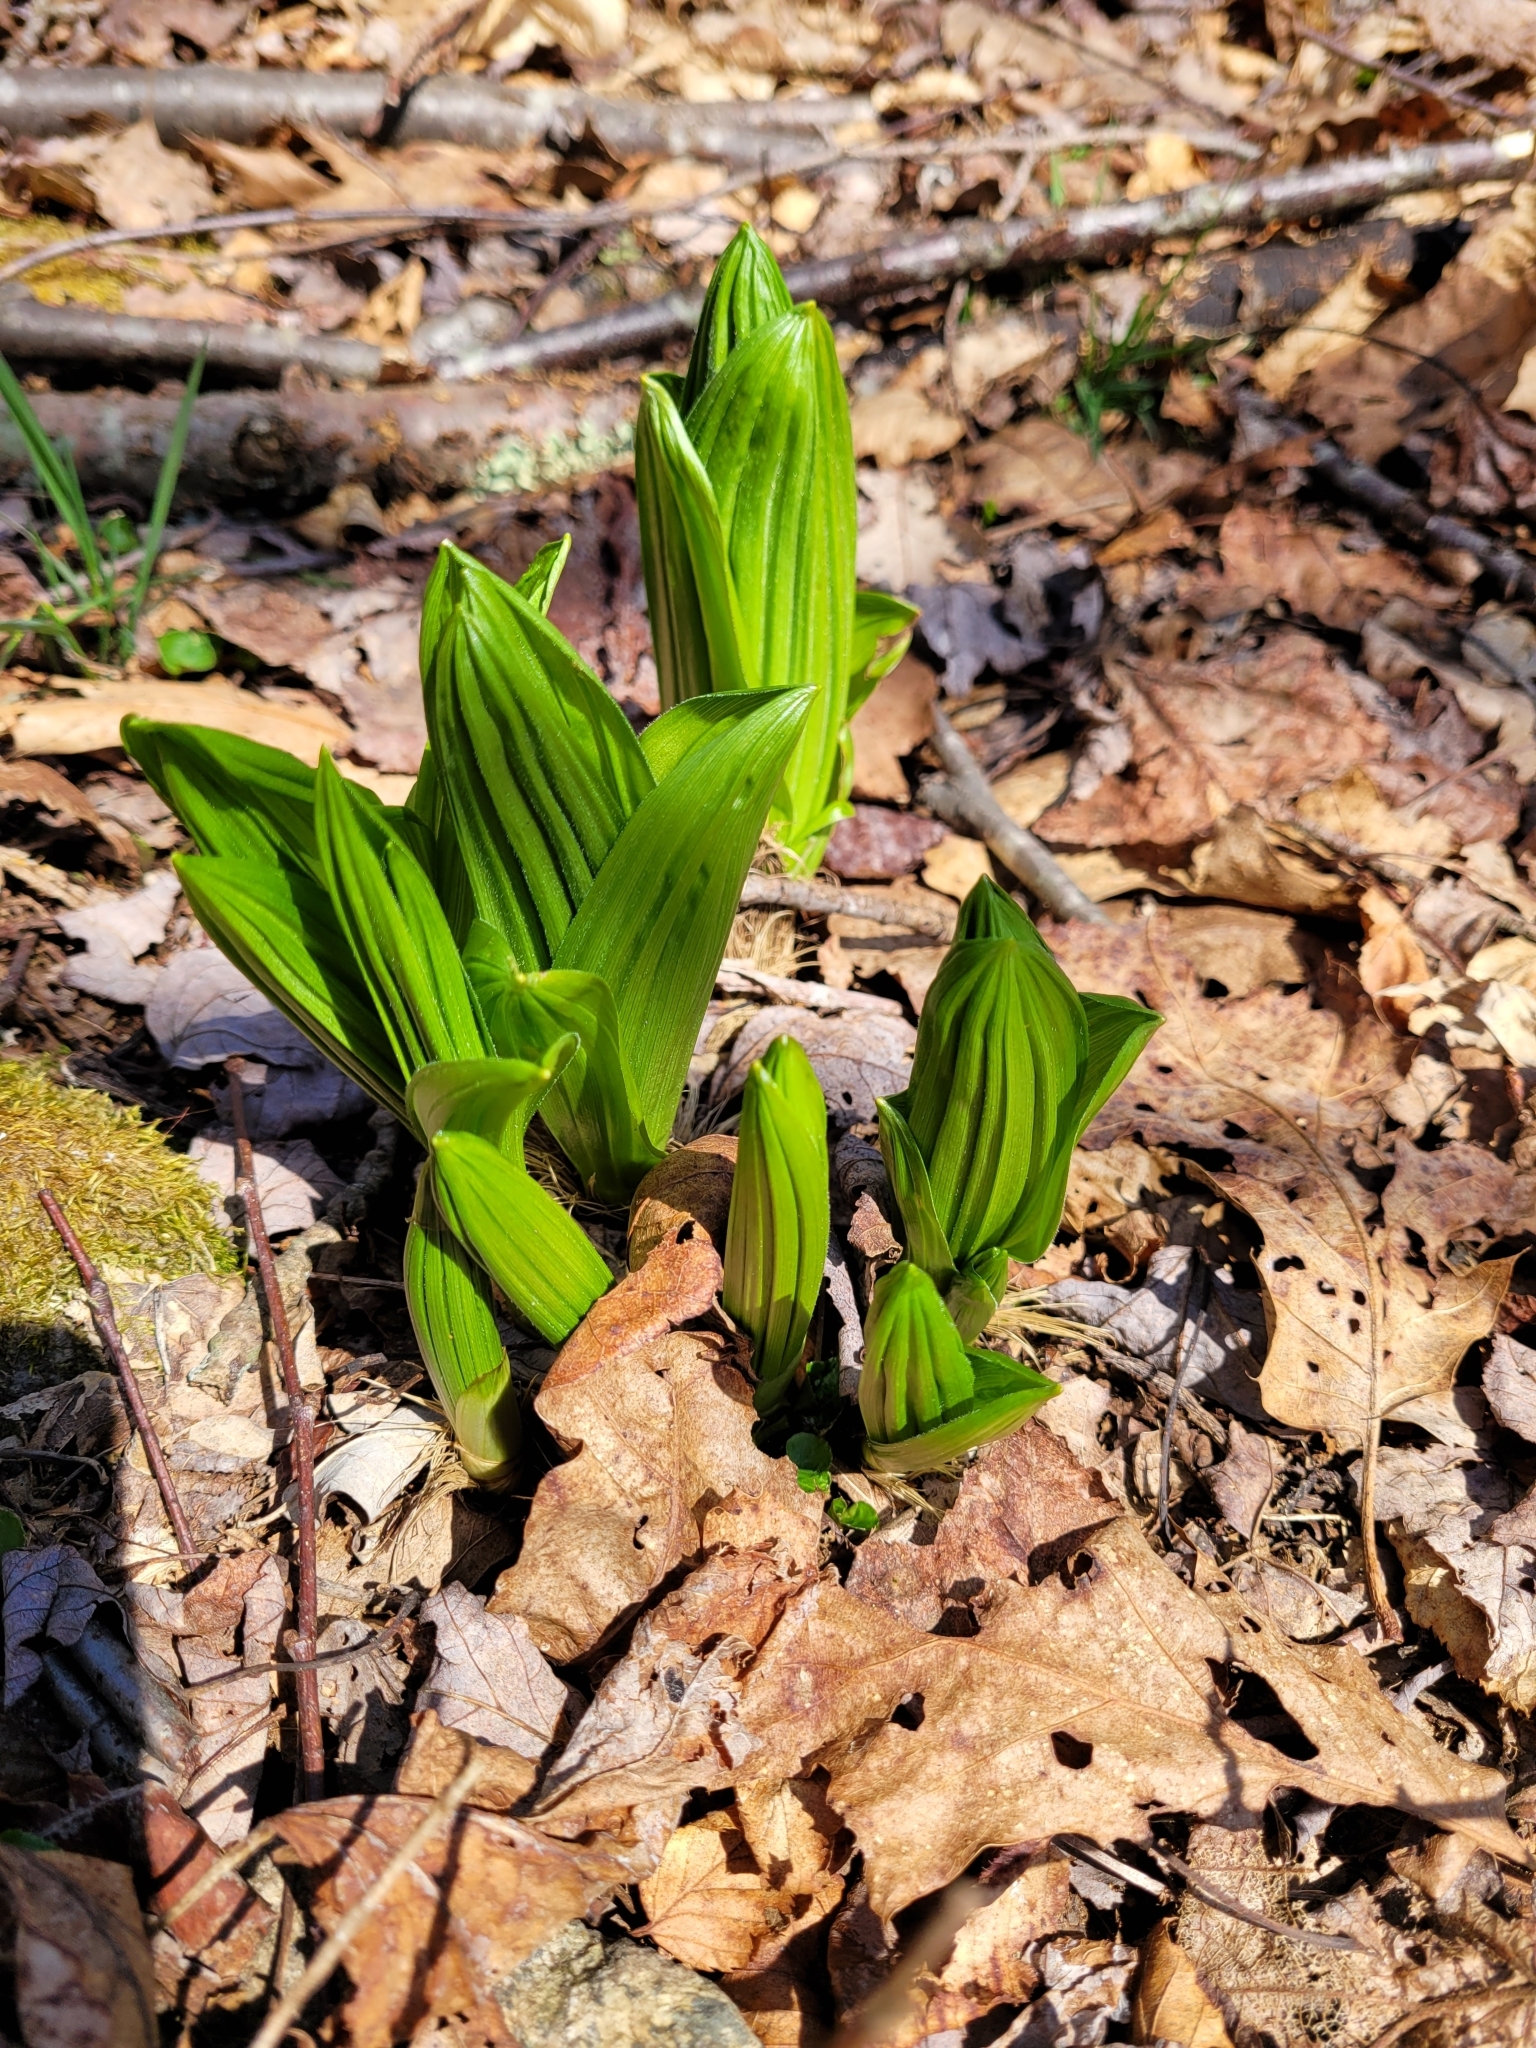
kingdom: Plantae
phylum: Tracheophyta
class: Liliopsida
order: Liliales
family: Melanthiaceae
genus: Veratrum
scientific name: Veratrum viride
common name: American false hellebore
